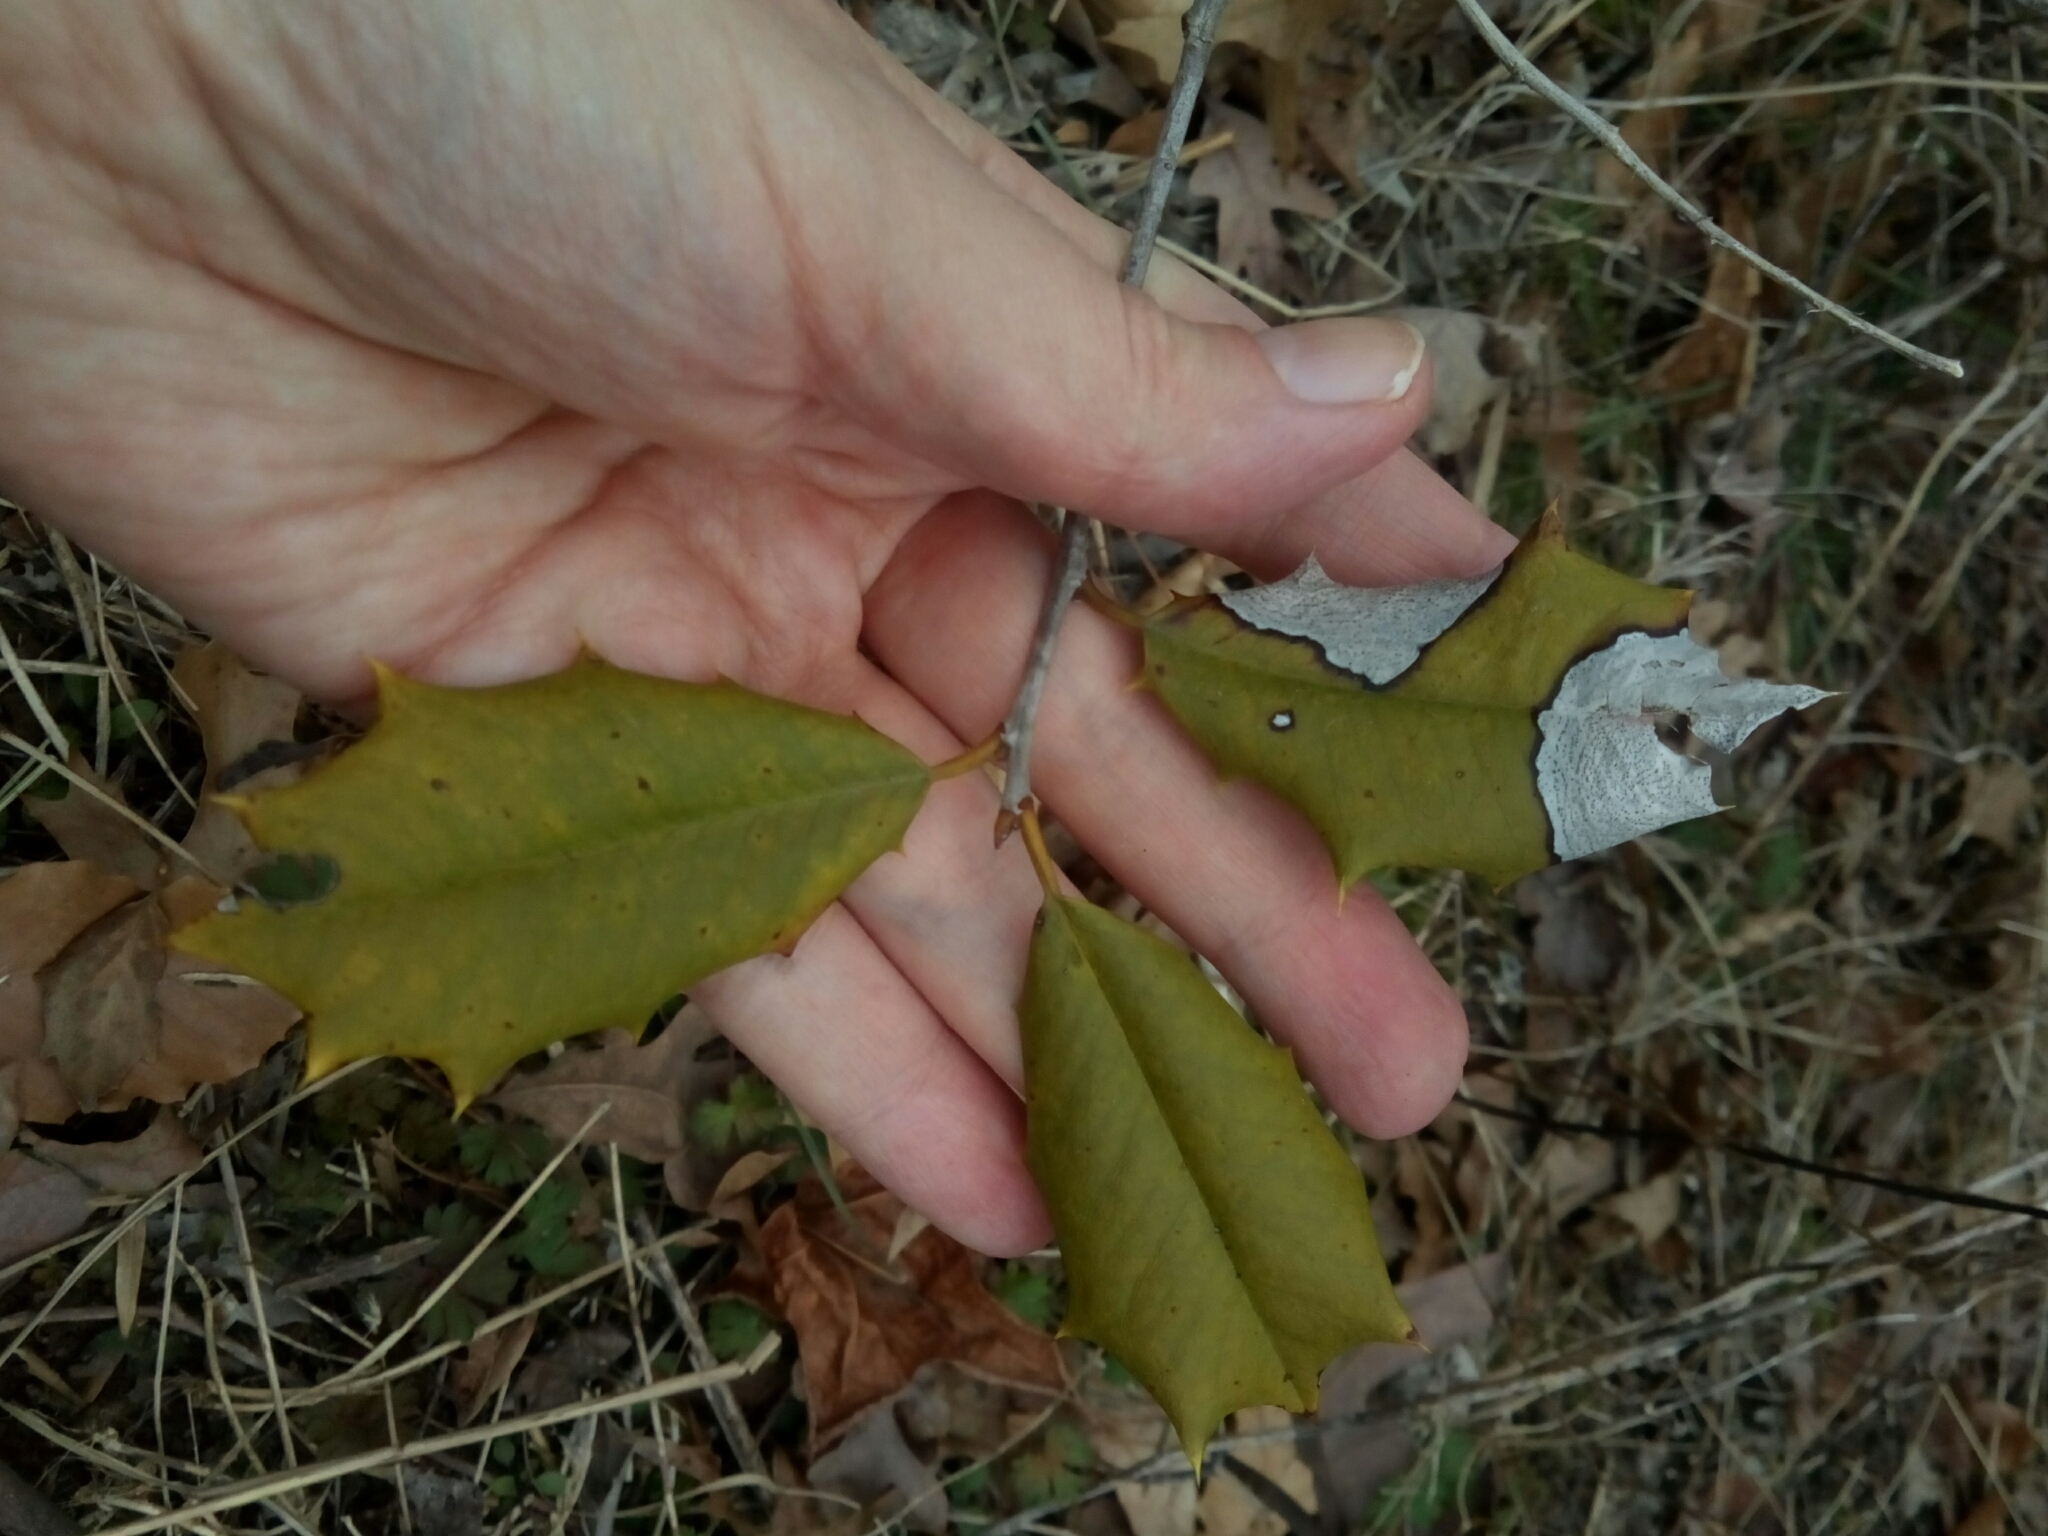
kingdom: Plantae
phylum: Tracheophyta
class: Magnoliopsida
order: Aquifoliales
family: Aquifoliaceae
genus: Ilex
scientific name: Ilex opaca
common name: American holly
